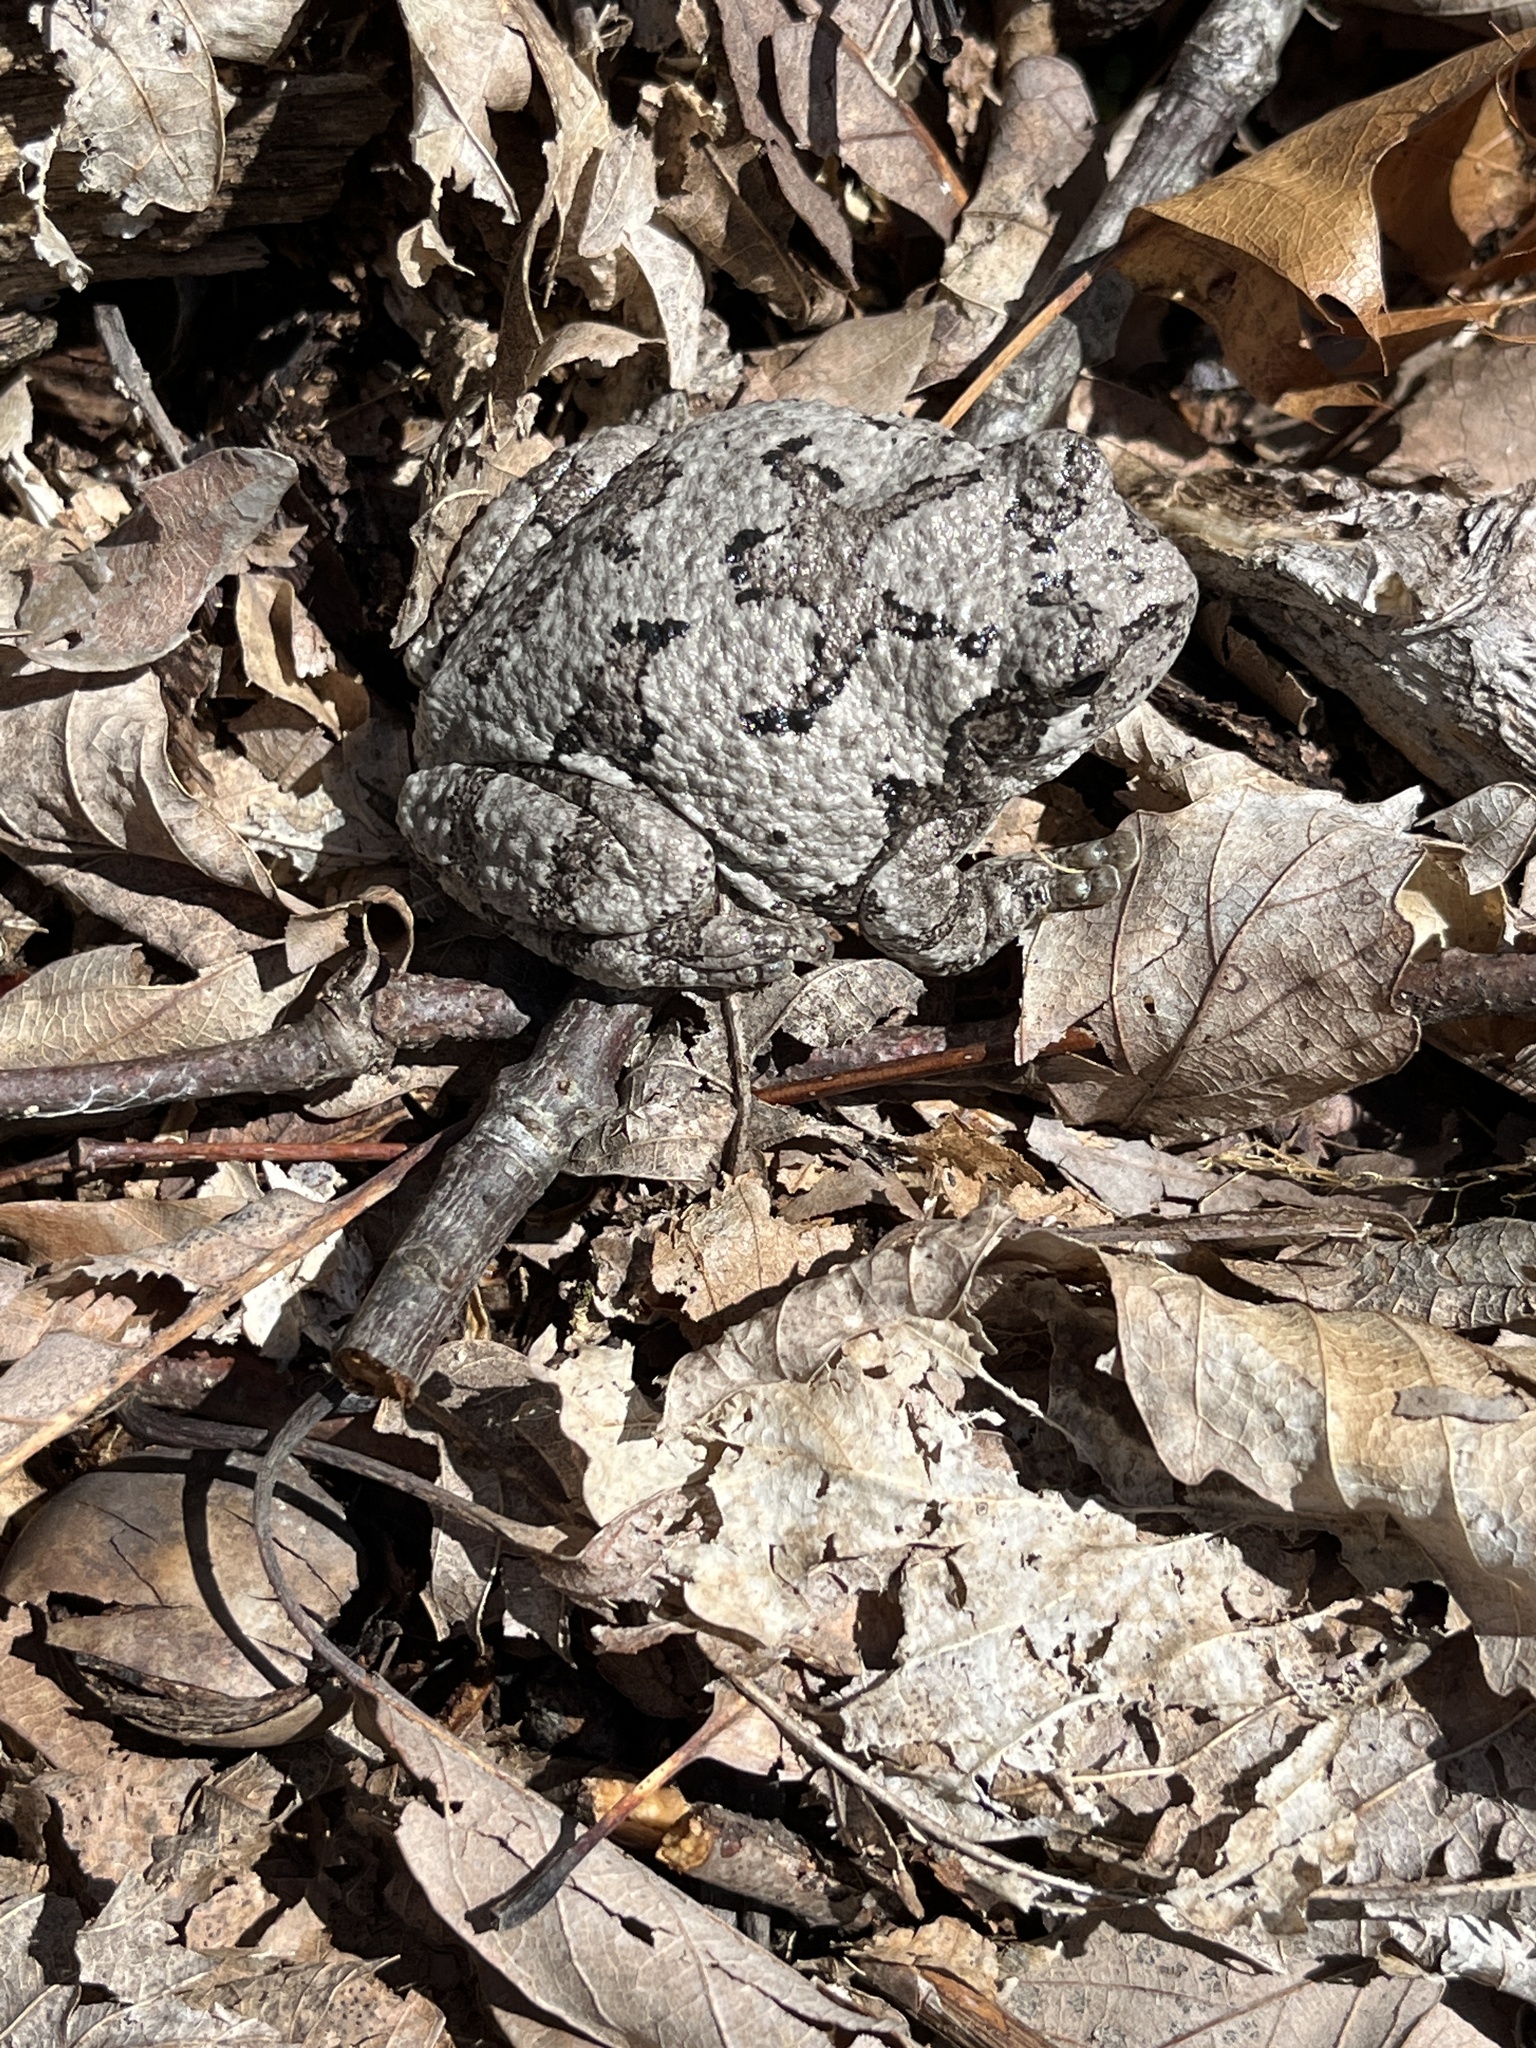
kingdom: Animalia
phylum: Chordata
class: Amphibia
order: Anura
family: Hylidae
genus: Dryophytes
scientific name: Dryophytes versicolor
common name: Gray treefrog
